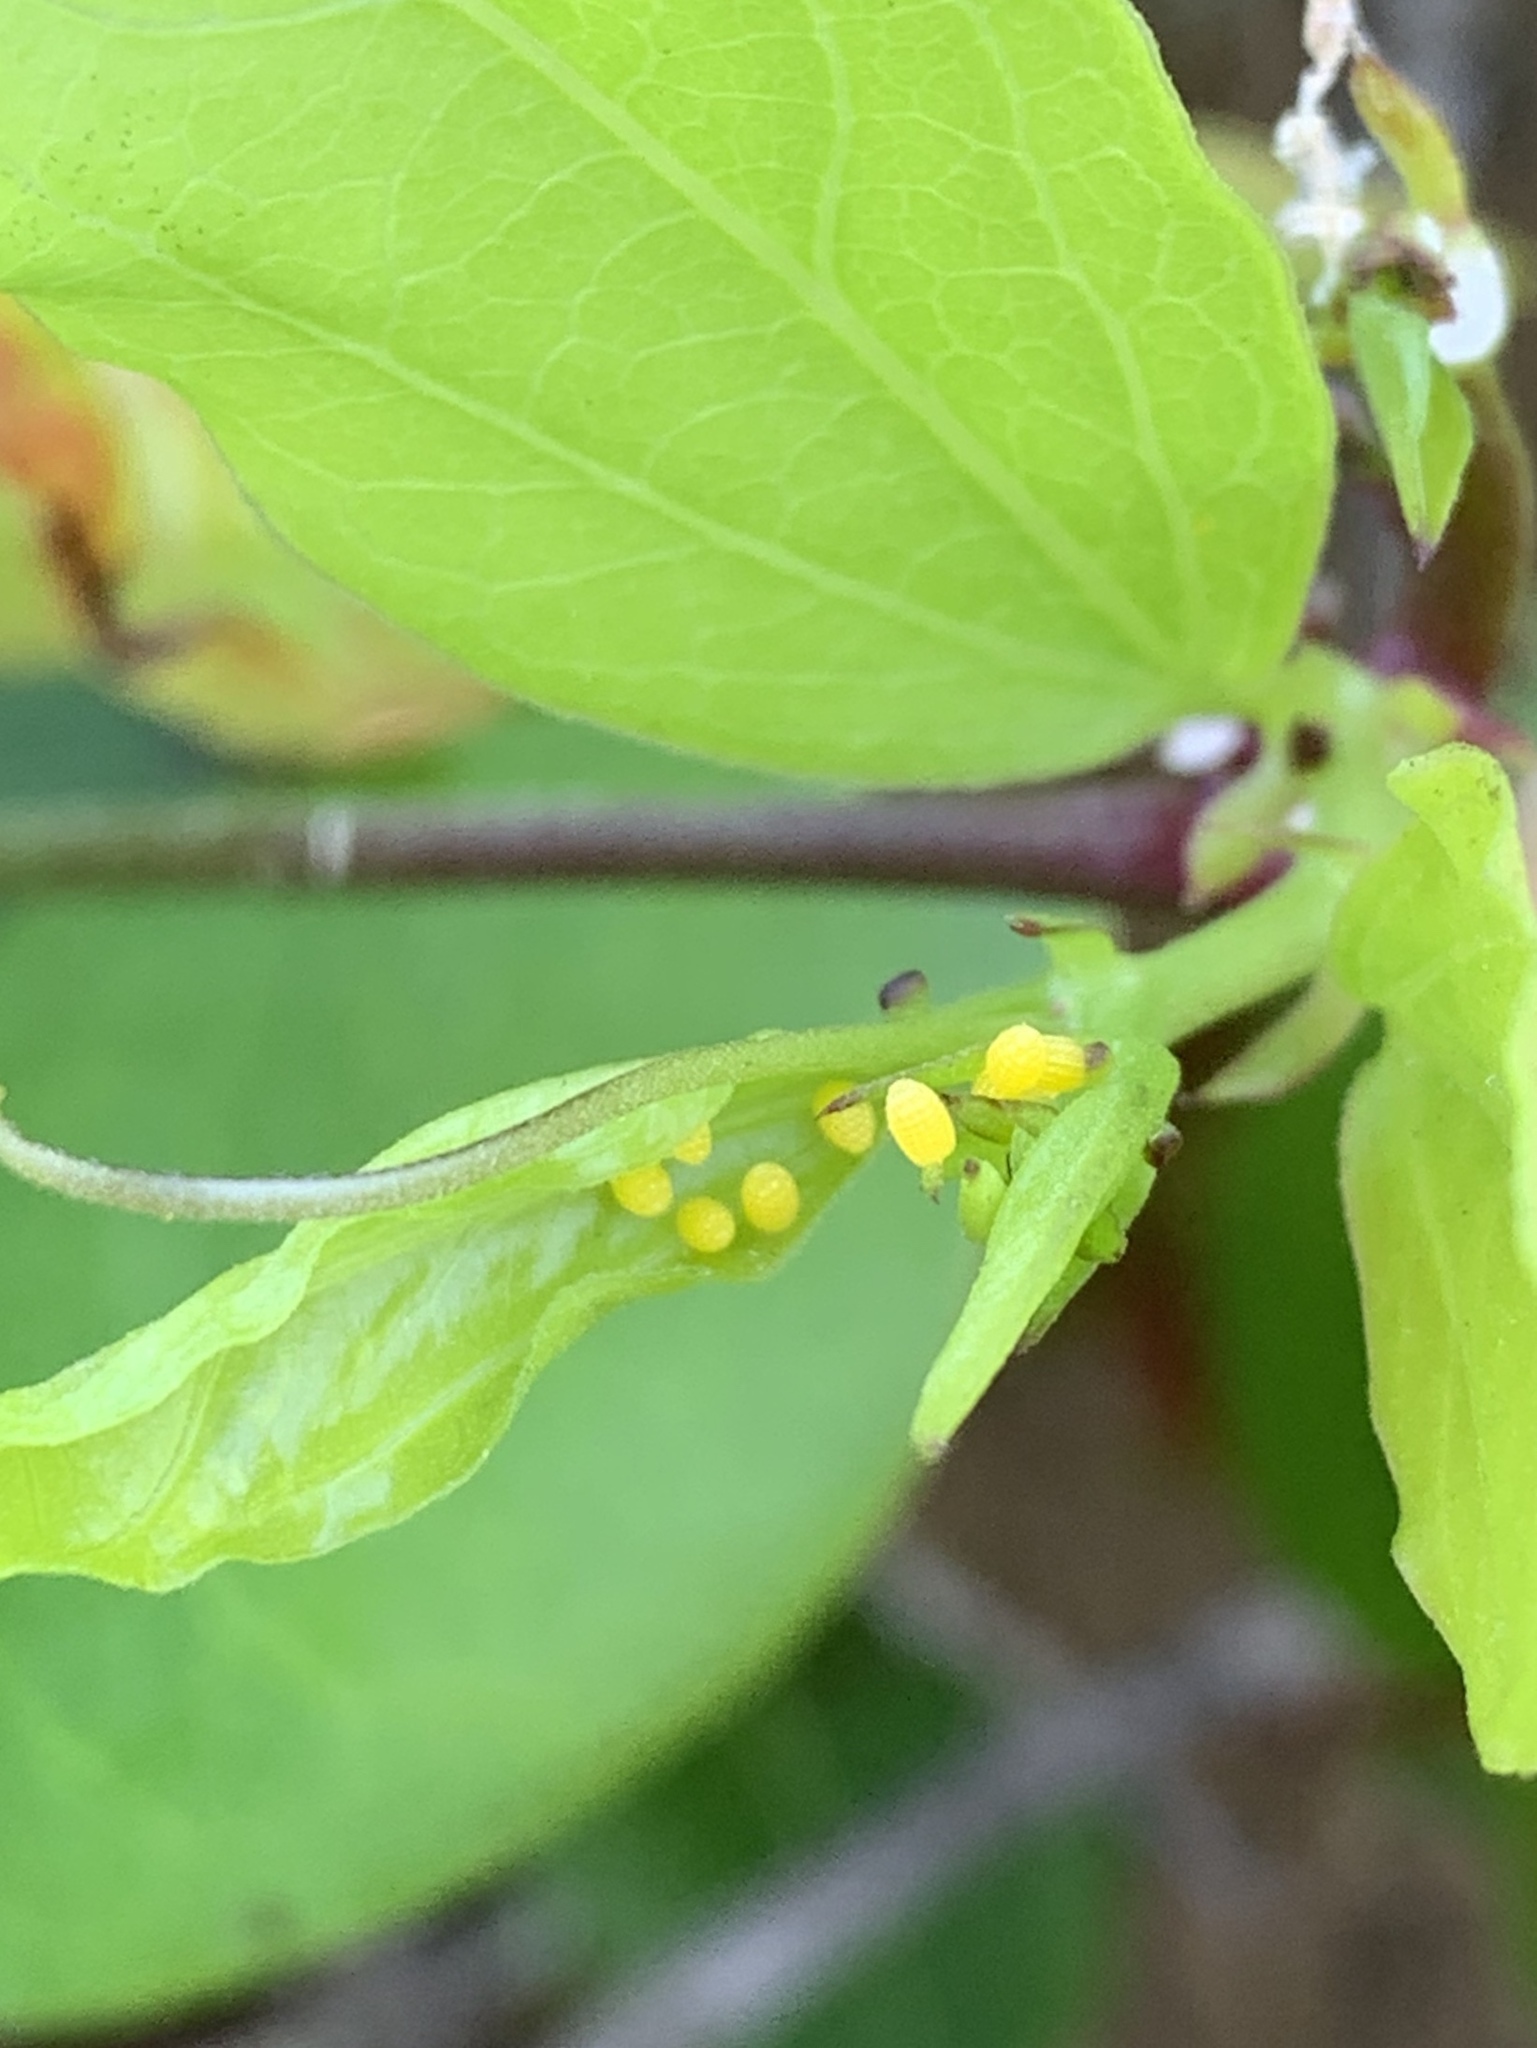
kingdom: Animalia
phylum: Arthropoda
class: Insecta
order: Lepidoptera
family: Nymphalidae
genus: Heliconius
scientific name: Heliconius charithonia
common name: Zebra long wing
